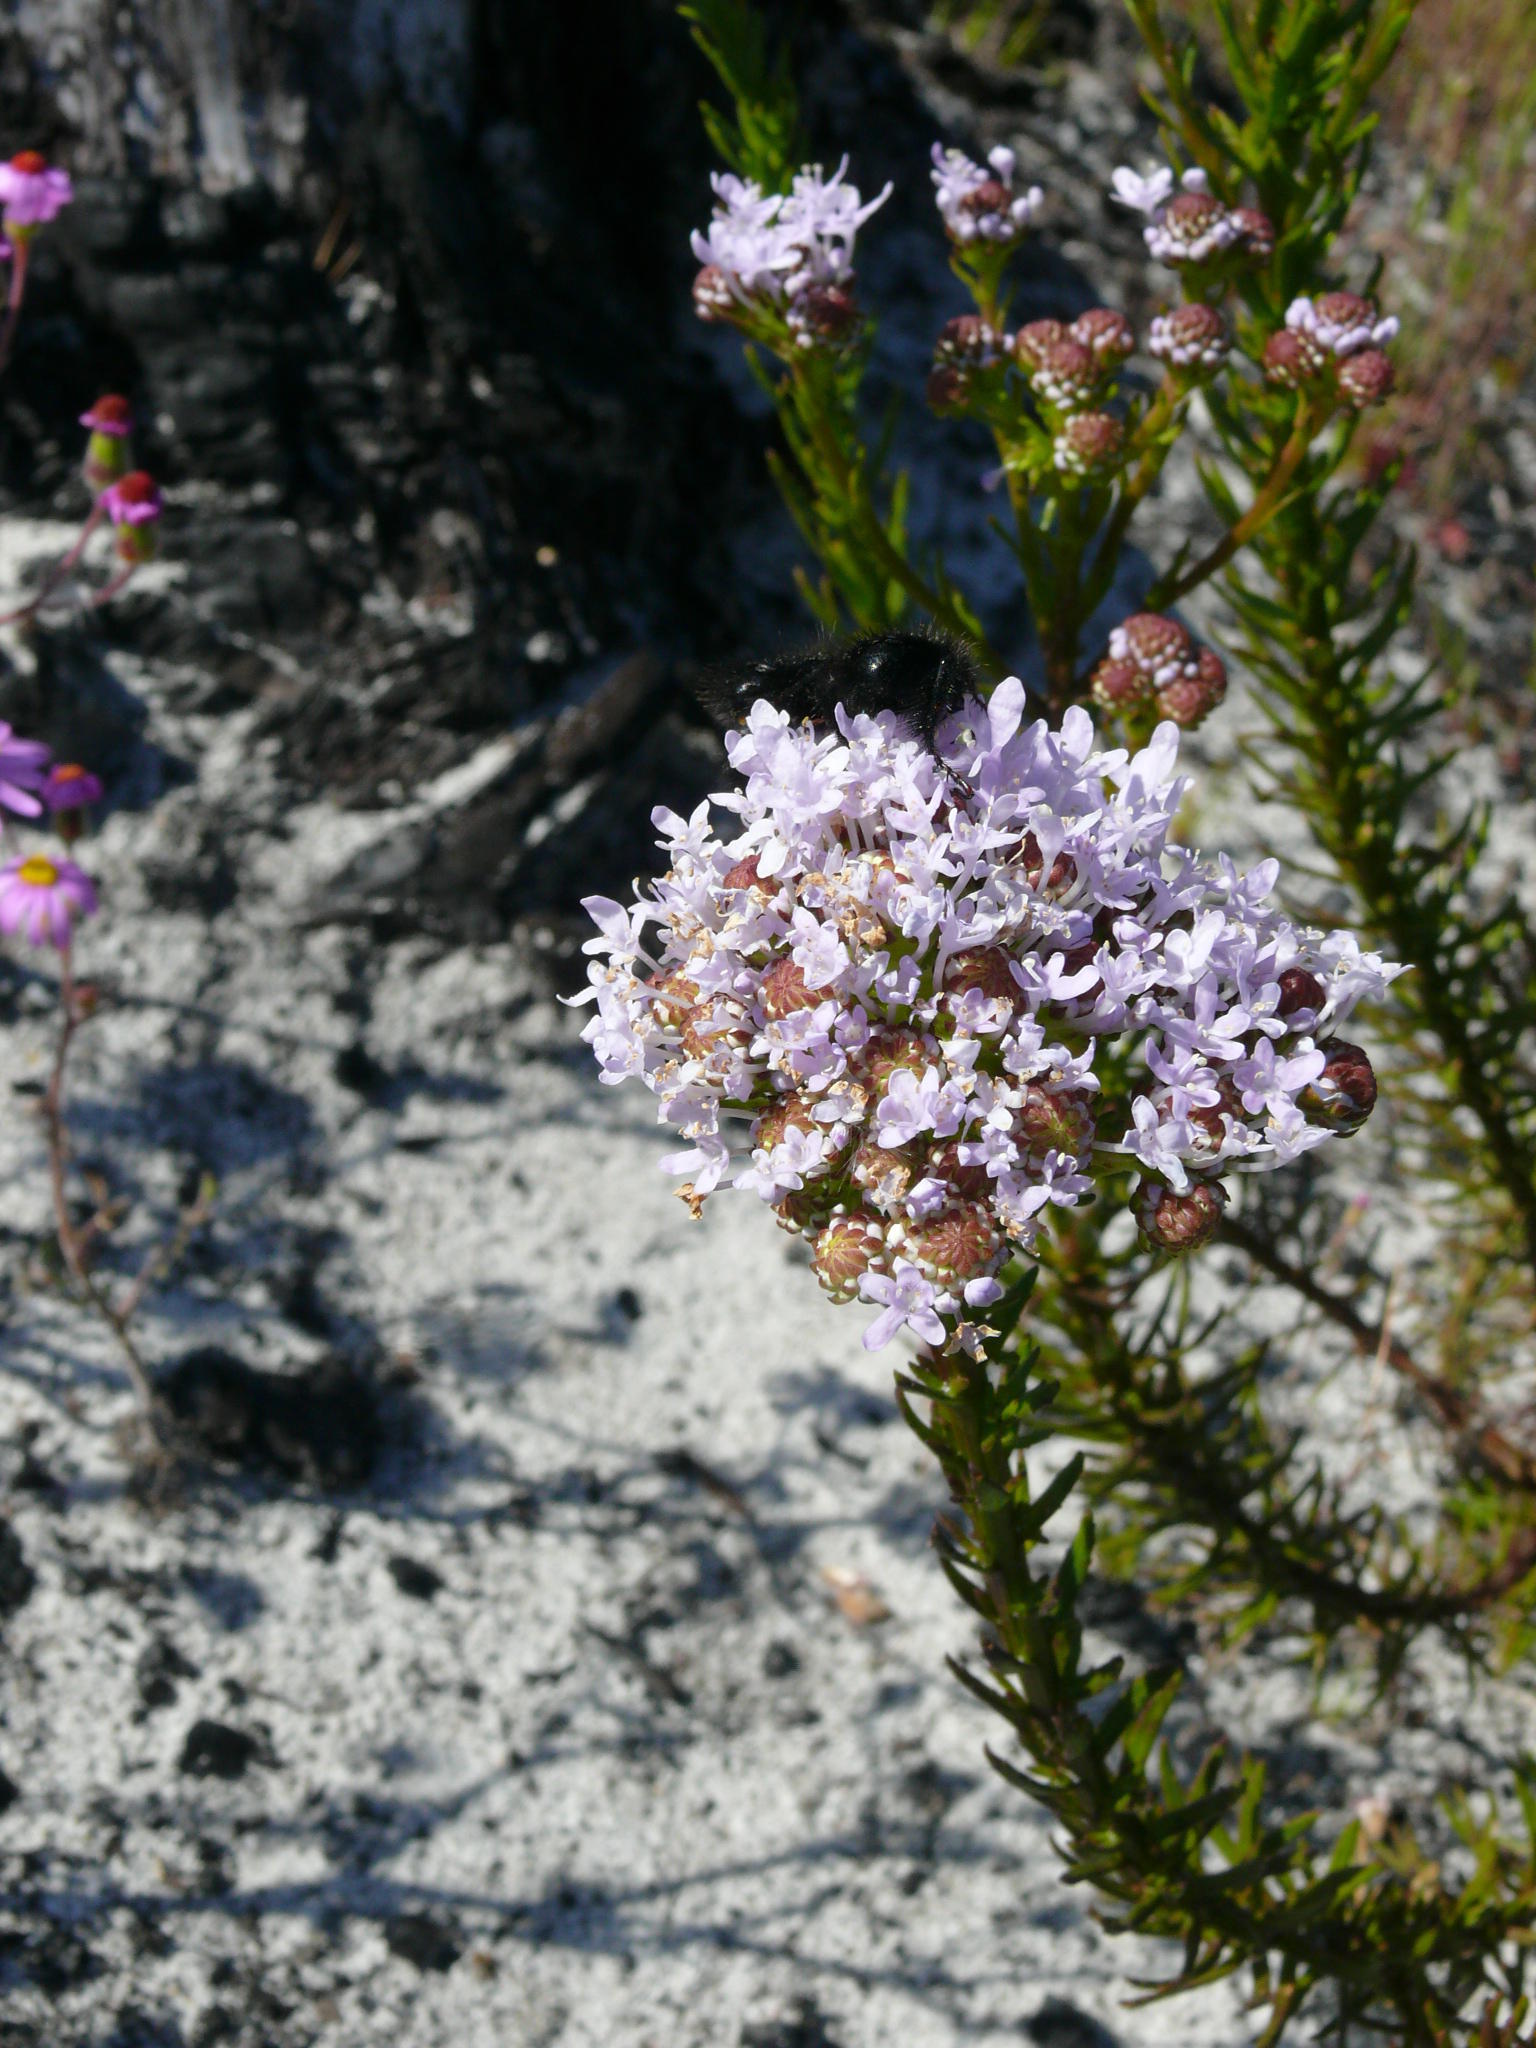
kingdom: Plantae
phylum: Tracheophyta
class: Magnoliopsida
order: Lamiales
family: Scrophulariaceae
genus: Pseudoselago
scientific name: Pseudoselago spuria
